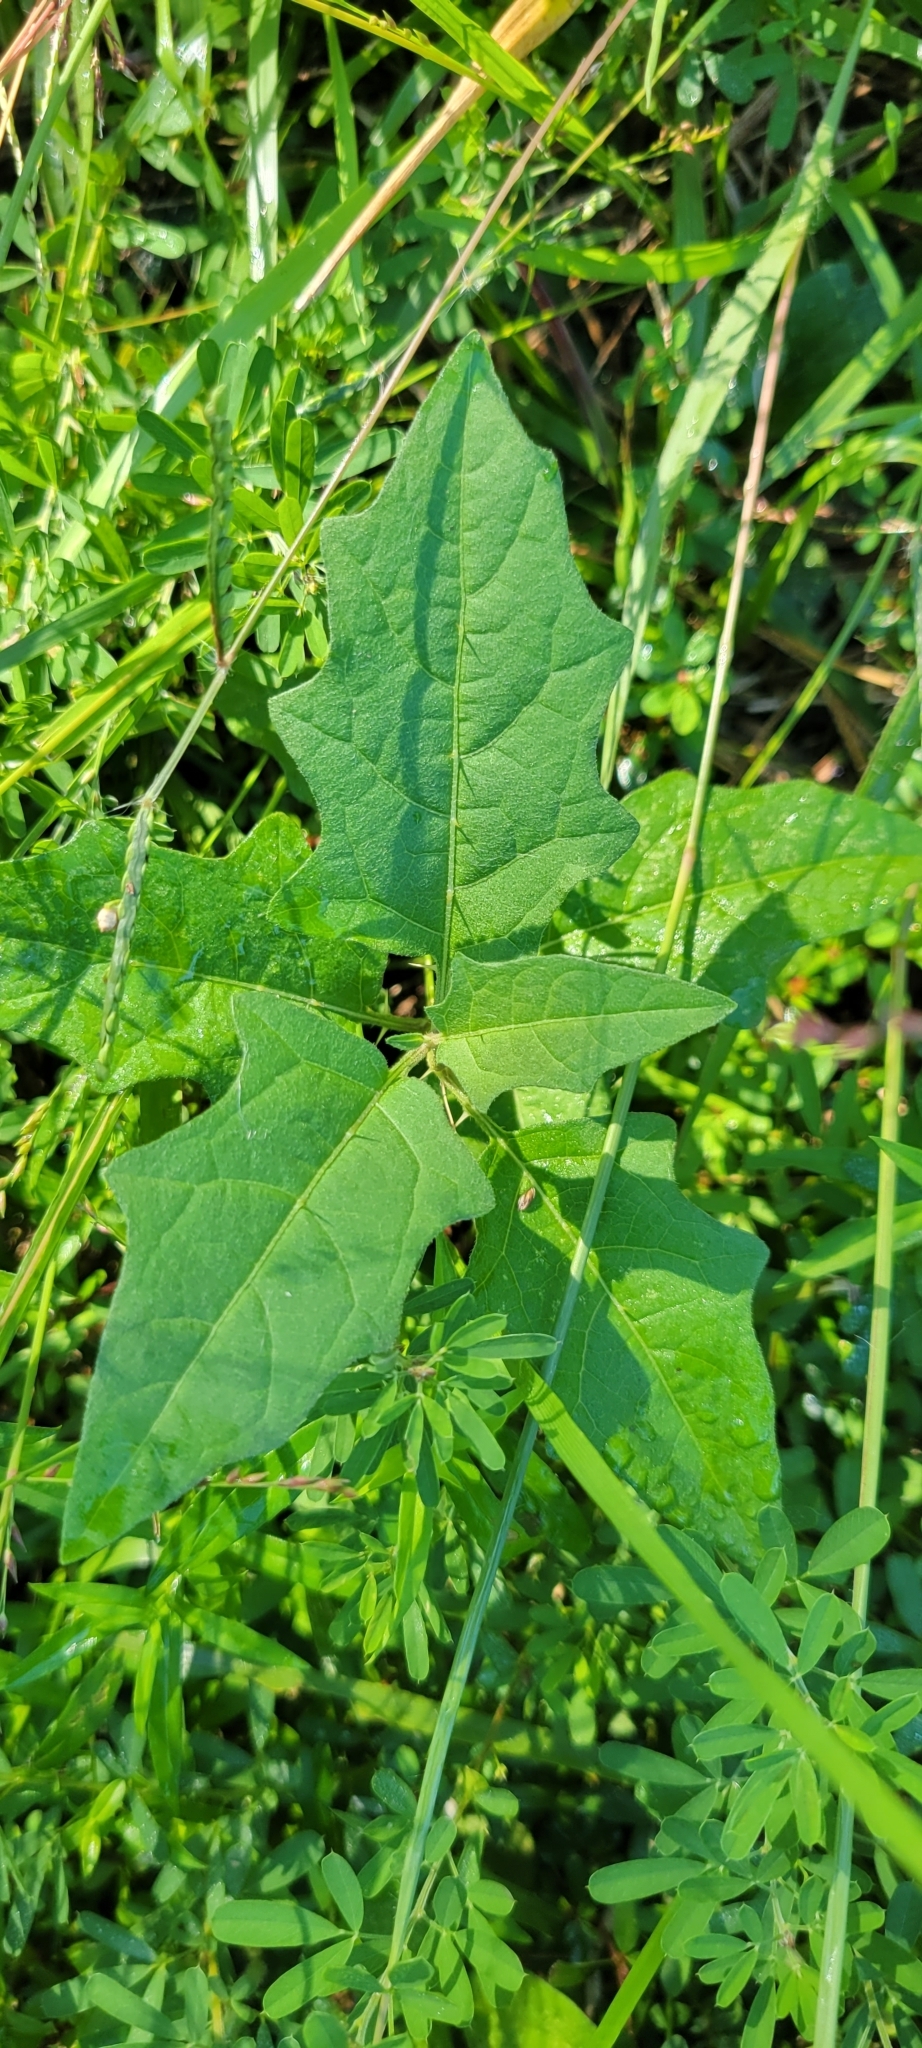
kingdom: Plantae
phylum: Tracheophyta
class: Magnoliopsida
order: Solanales
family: Solanaceae
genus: Solanum
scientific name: Solanum carolinense
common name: Horse-nettle
